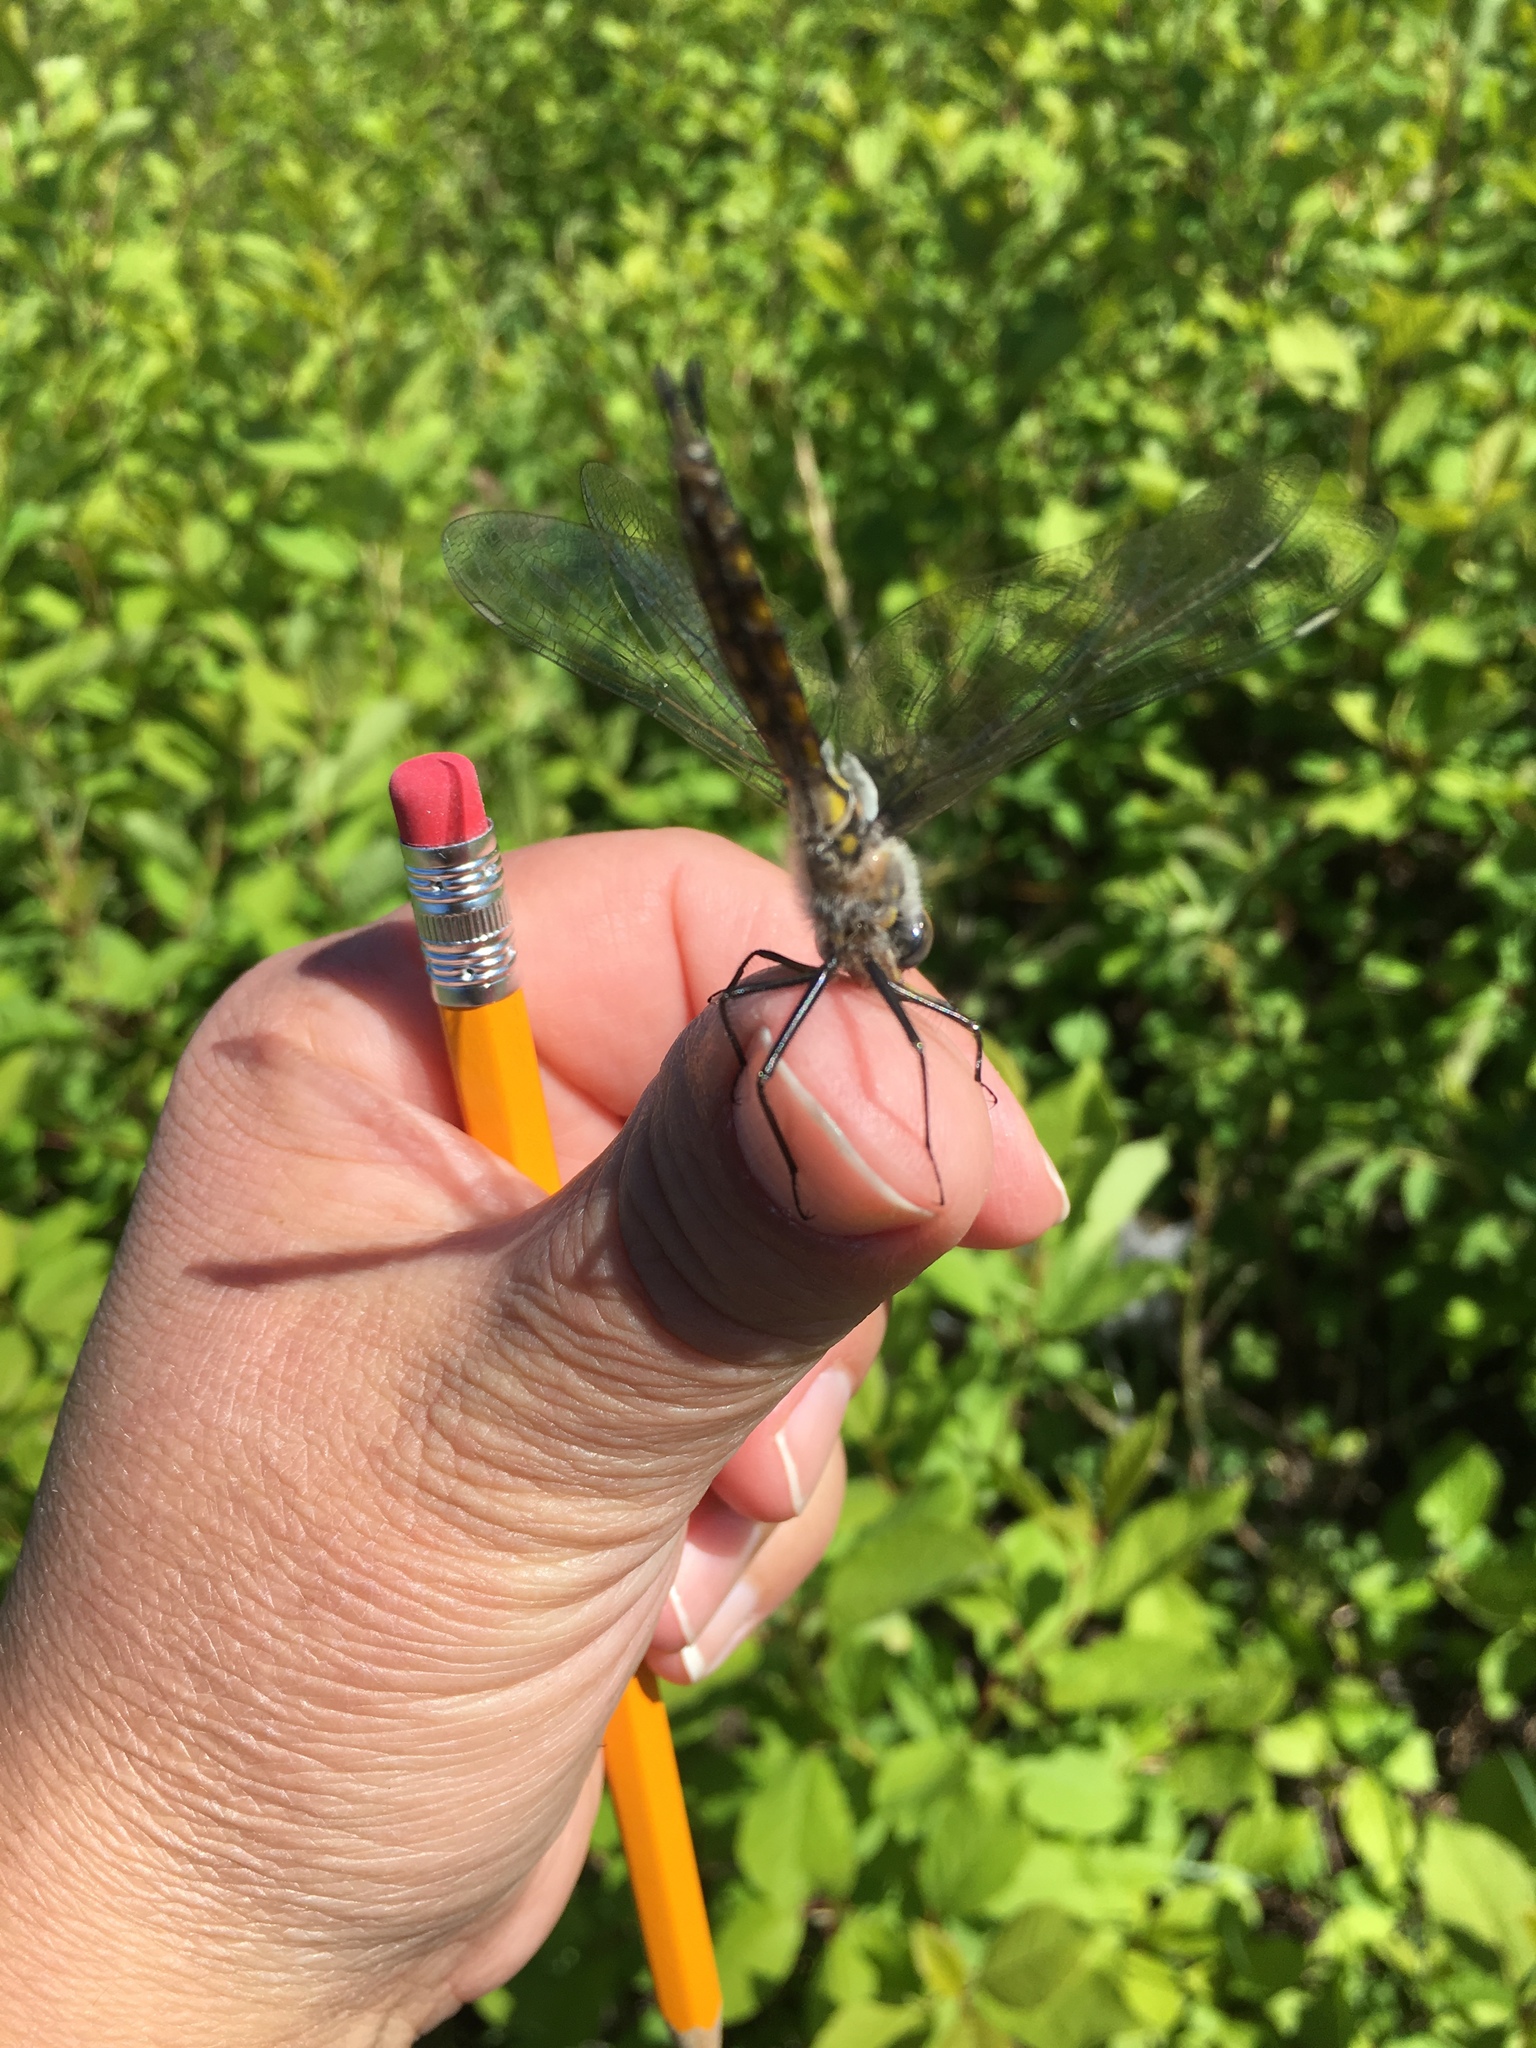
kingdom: Animalia
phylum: Arthropoda
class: Insecta
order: Odonata
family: Corduliidae
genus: Epitheca
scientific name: Epitheca spinigera
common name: Spiny baskettail
